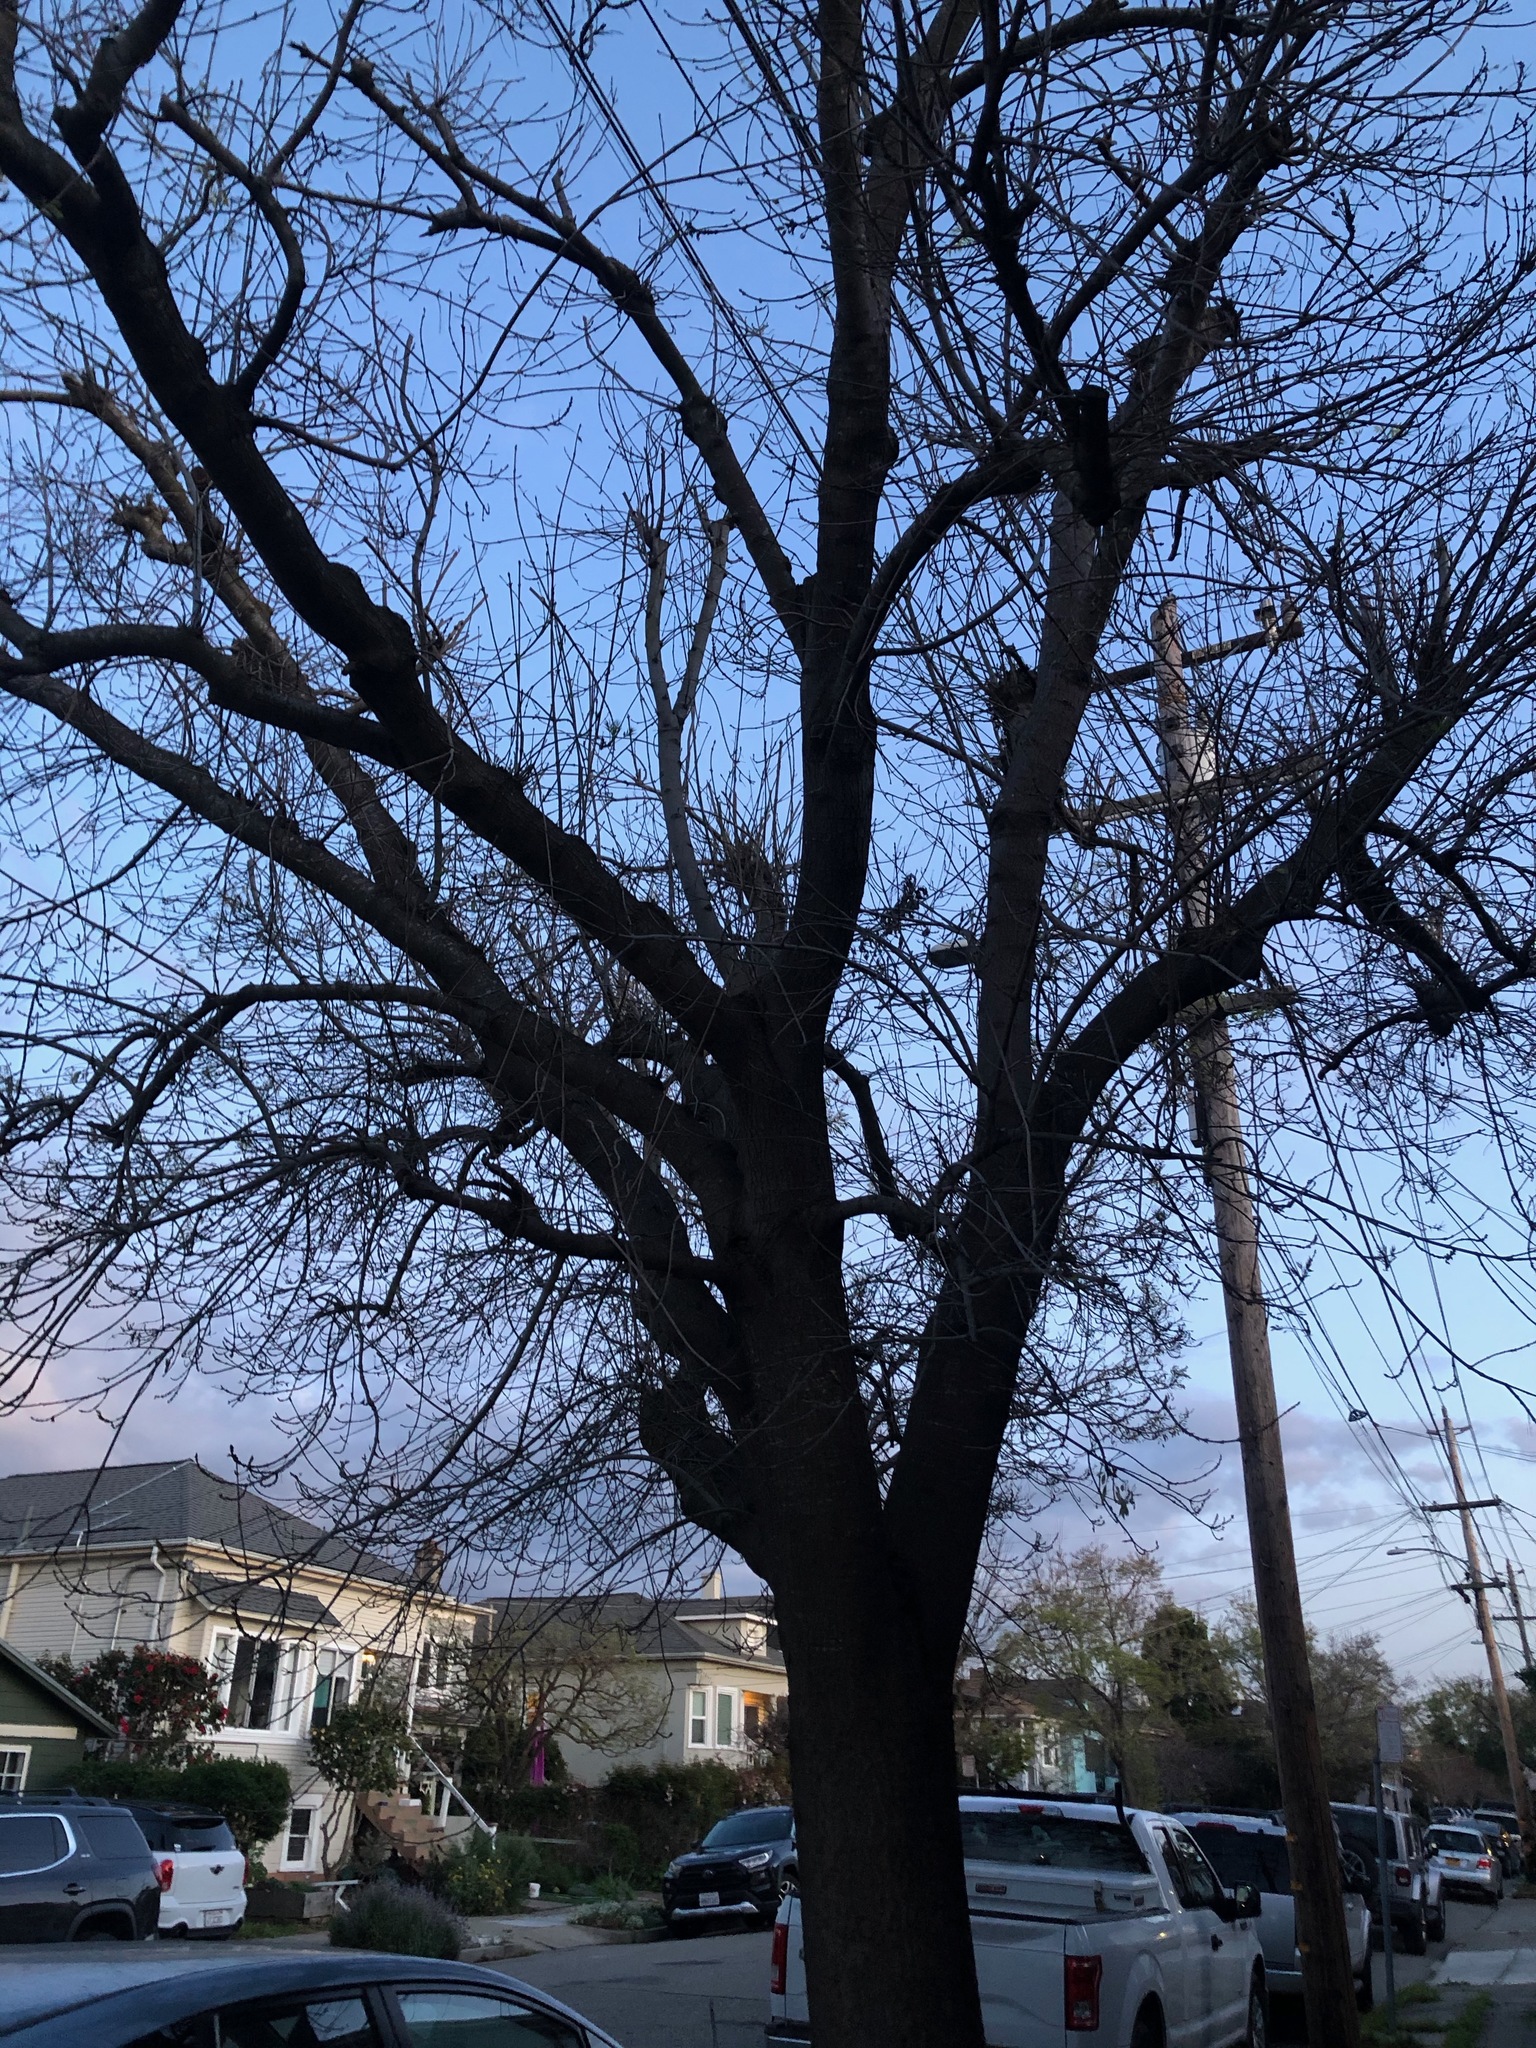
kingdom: Plantae
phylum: Tracheophyta
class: Magnoliopsida
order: Sapindales
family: Sapindaceae
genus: Acer
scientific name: Acer negundo
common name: Ashleaf maple
